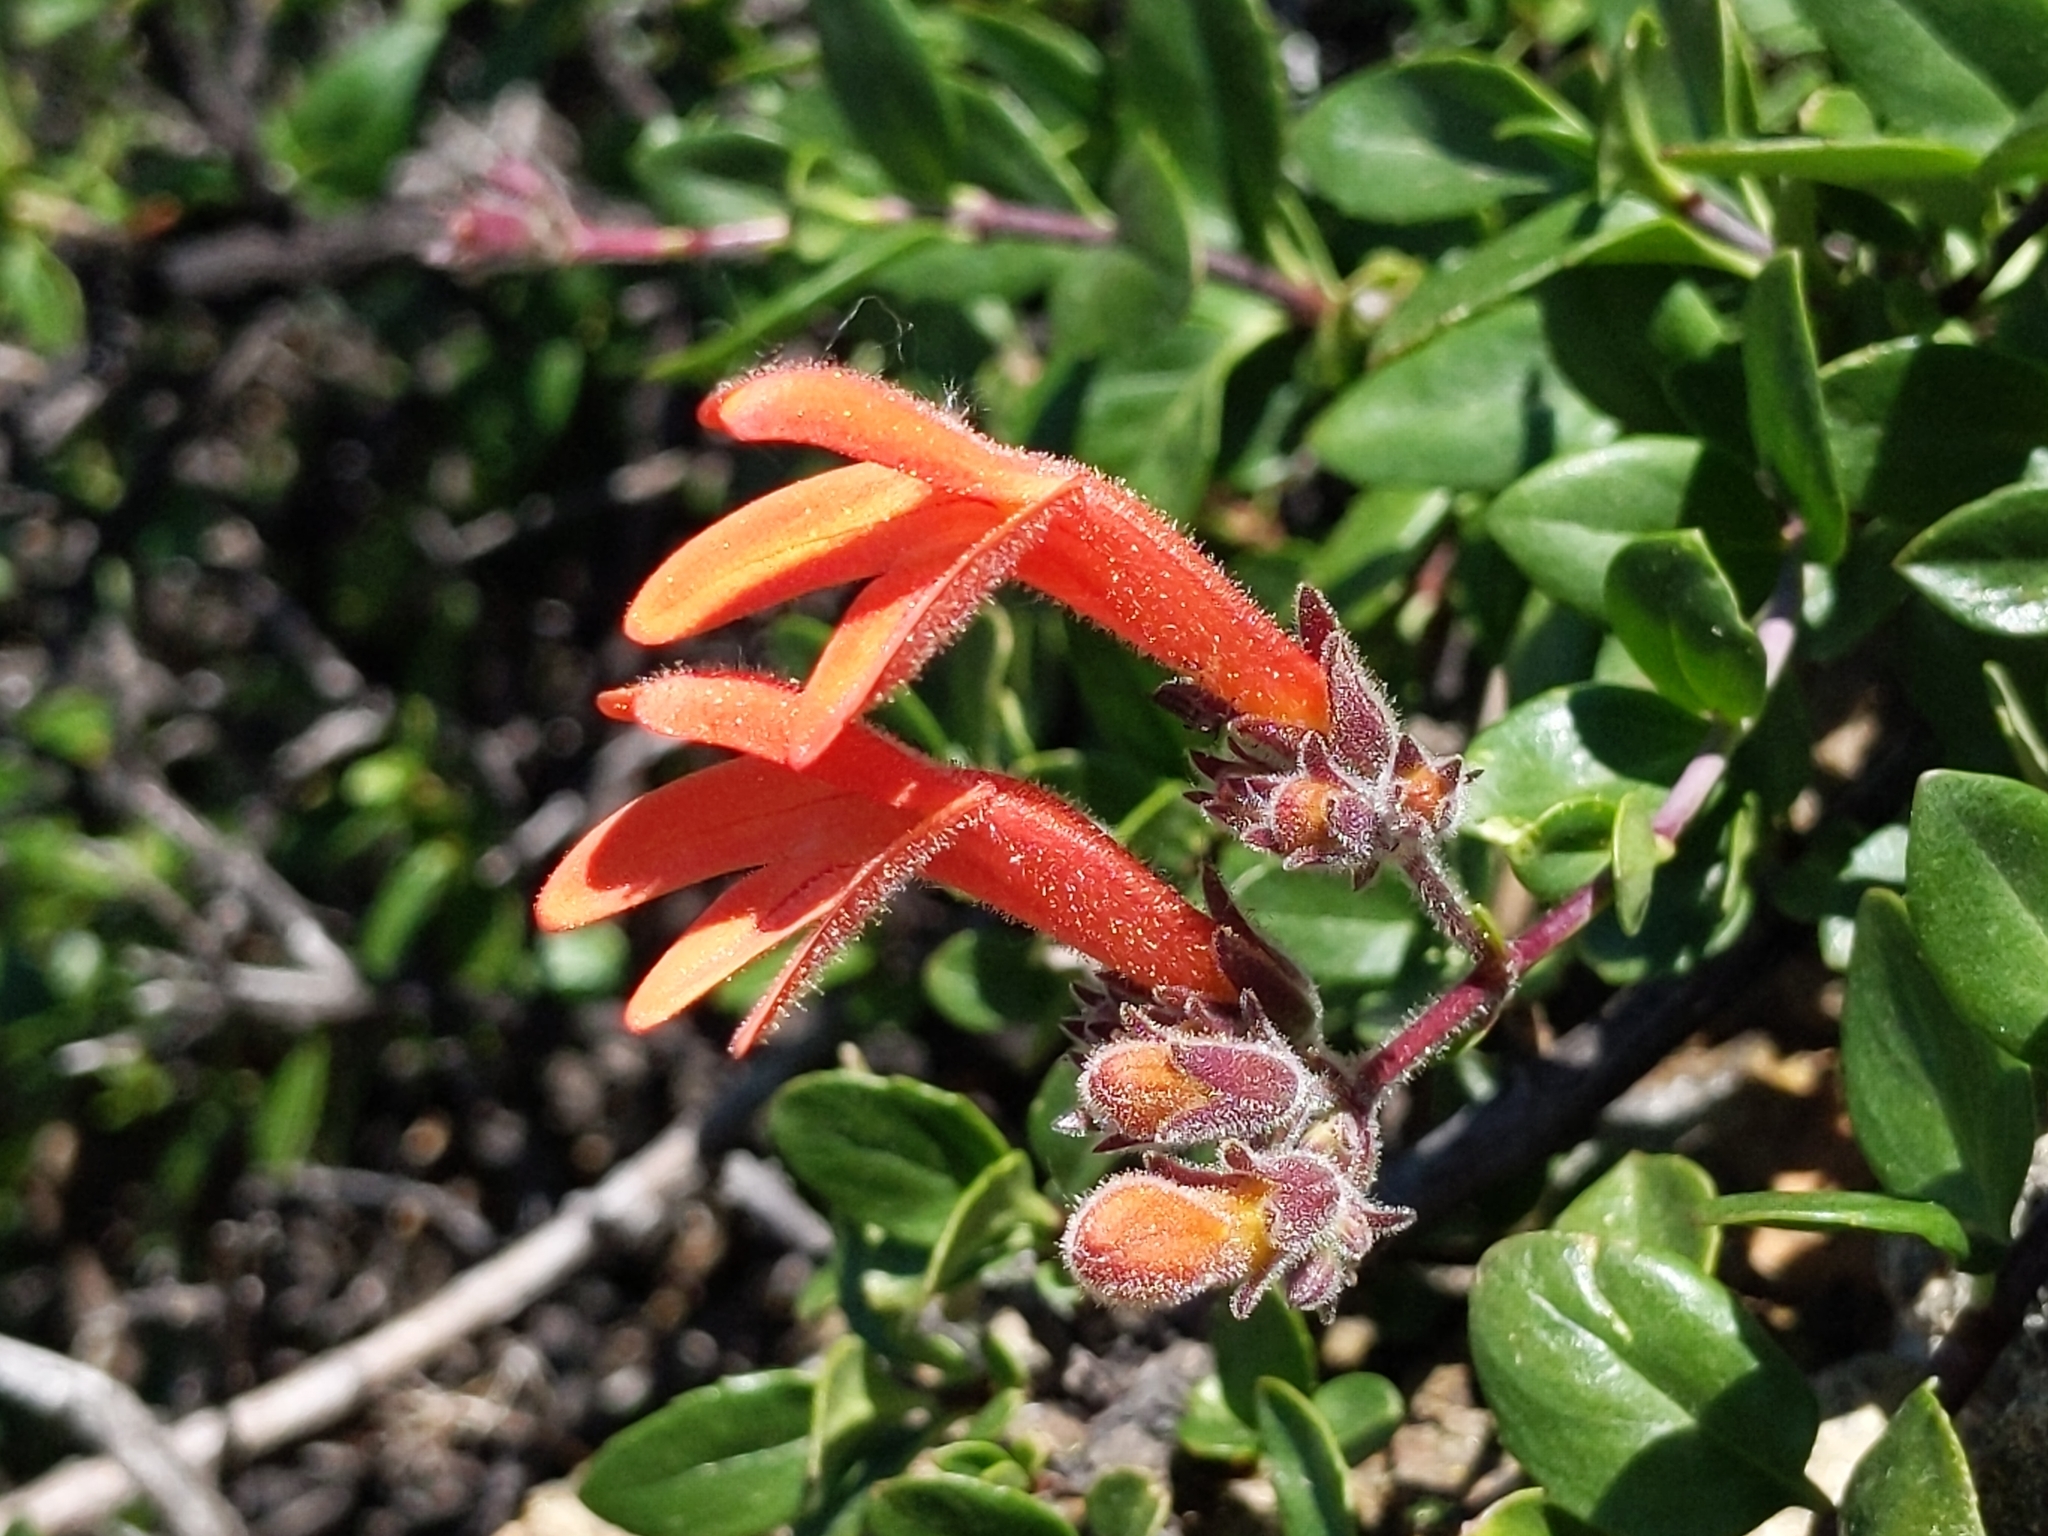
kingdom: Plantae
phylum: Tracheophyta
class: Magnoliopsida
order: Lamiales
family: Plantaginaceae
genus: Keckiella
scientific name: Keckiella corymbosa
